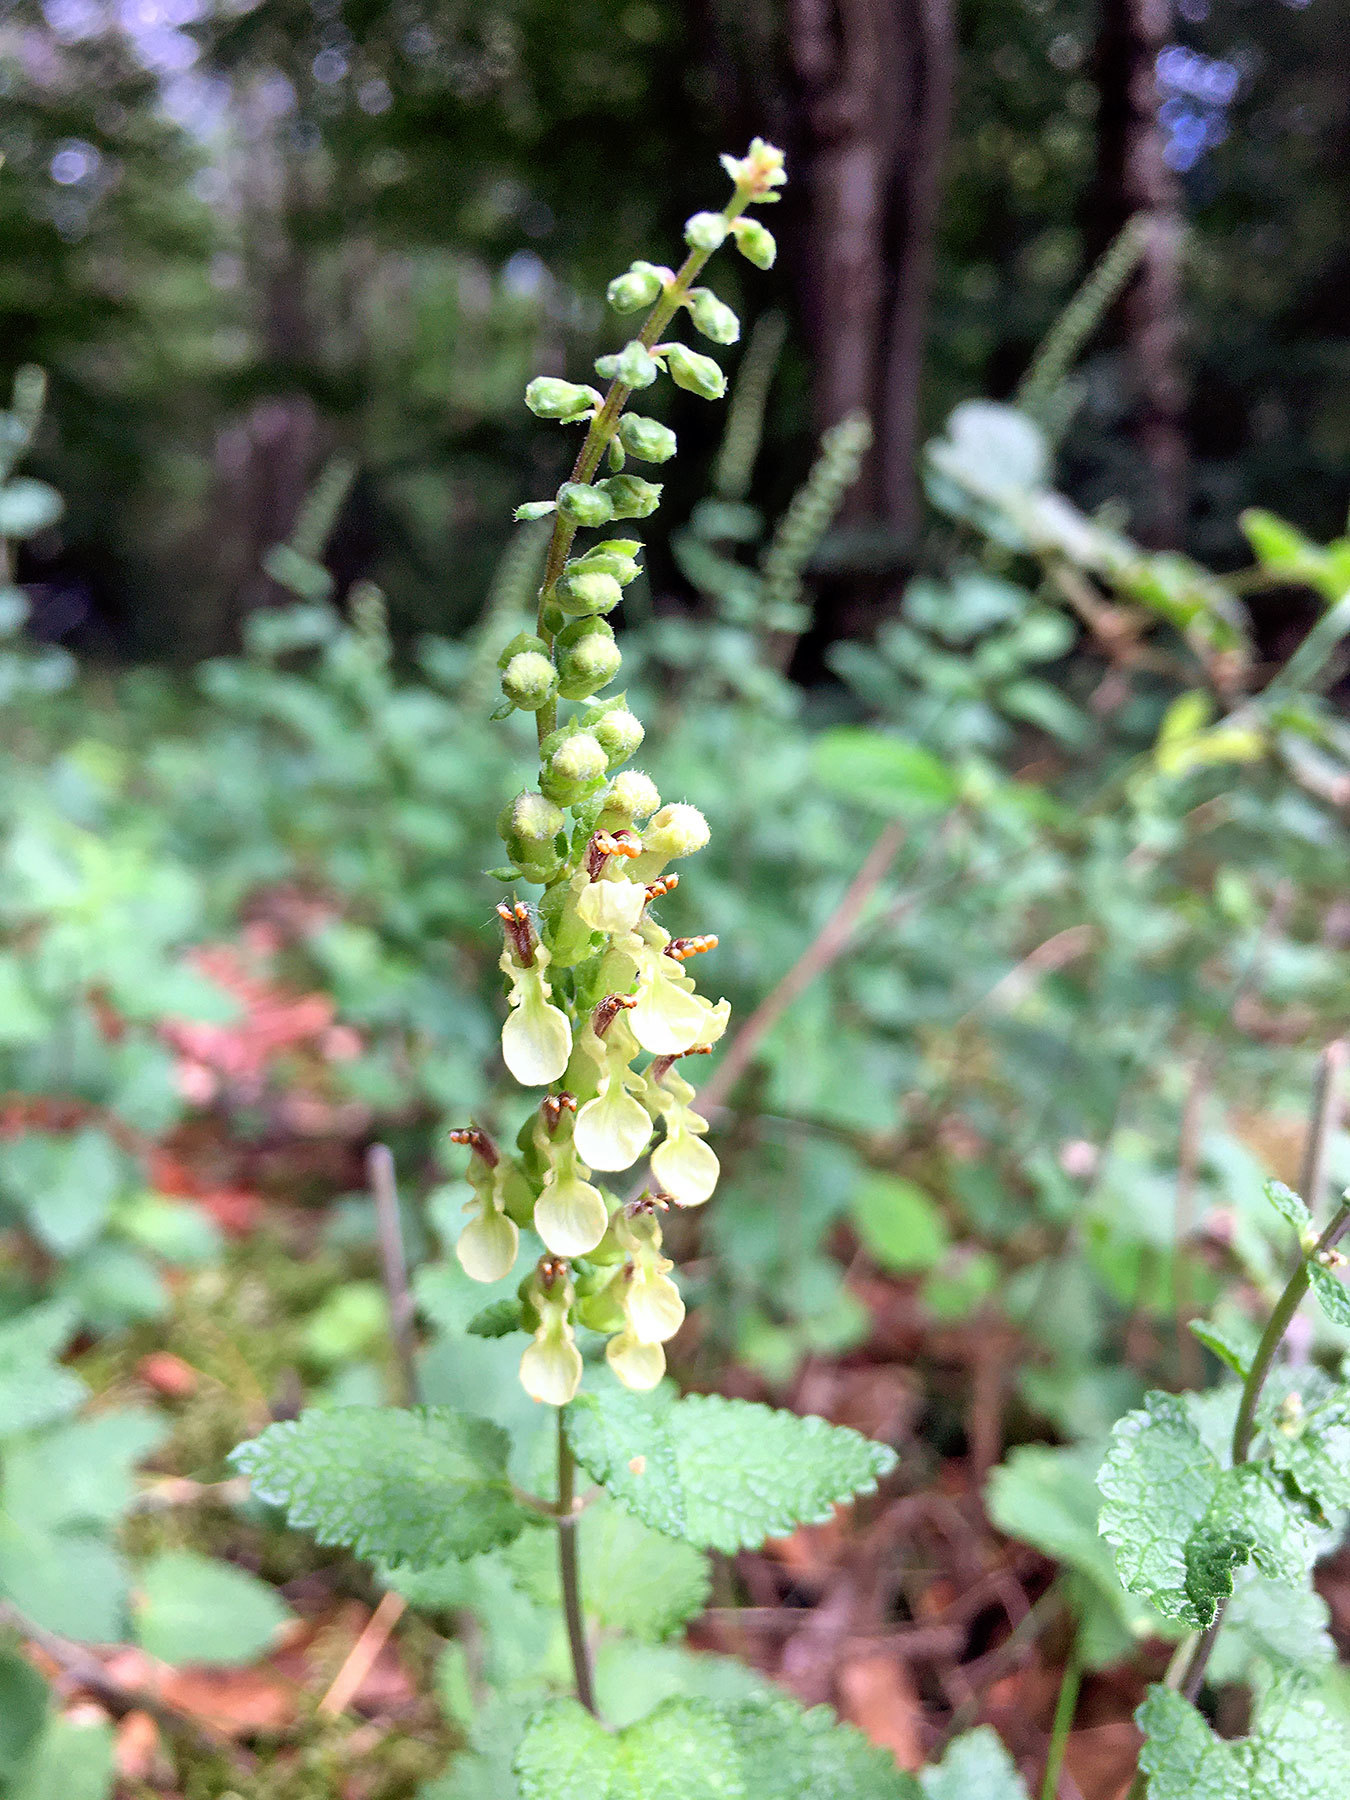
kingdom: Plantae
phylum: Tracheophyta
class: Magnoliopsida
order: Lamiales
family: Lamiaceae
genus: Teucrium
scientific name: Teucrium scorodonia
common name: Woodland germander
